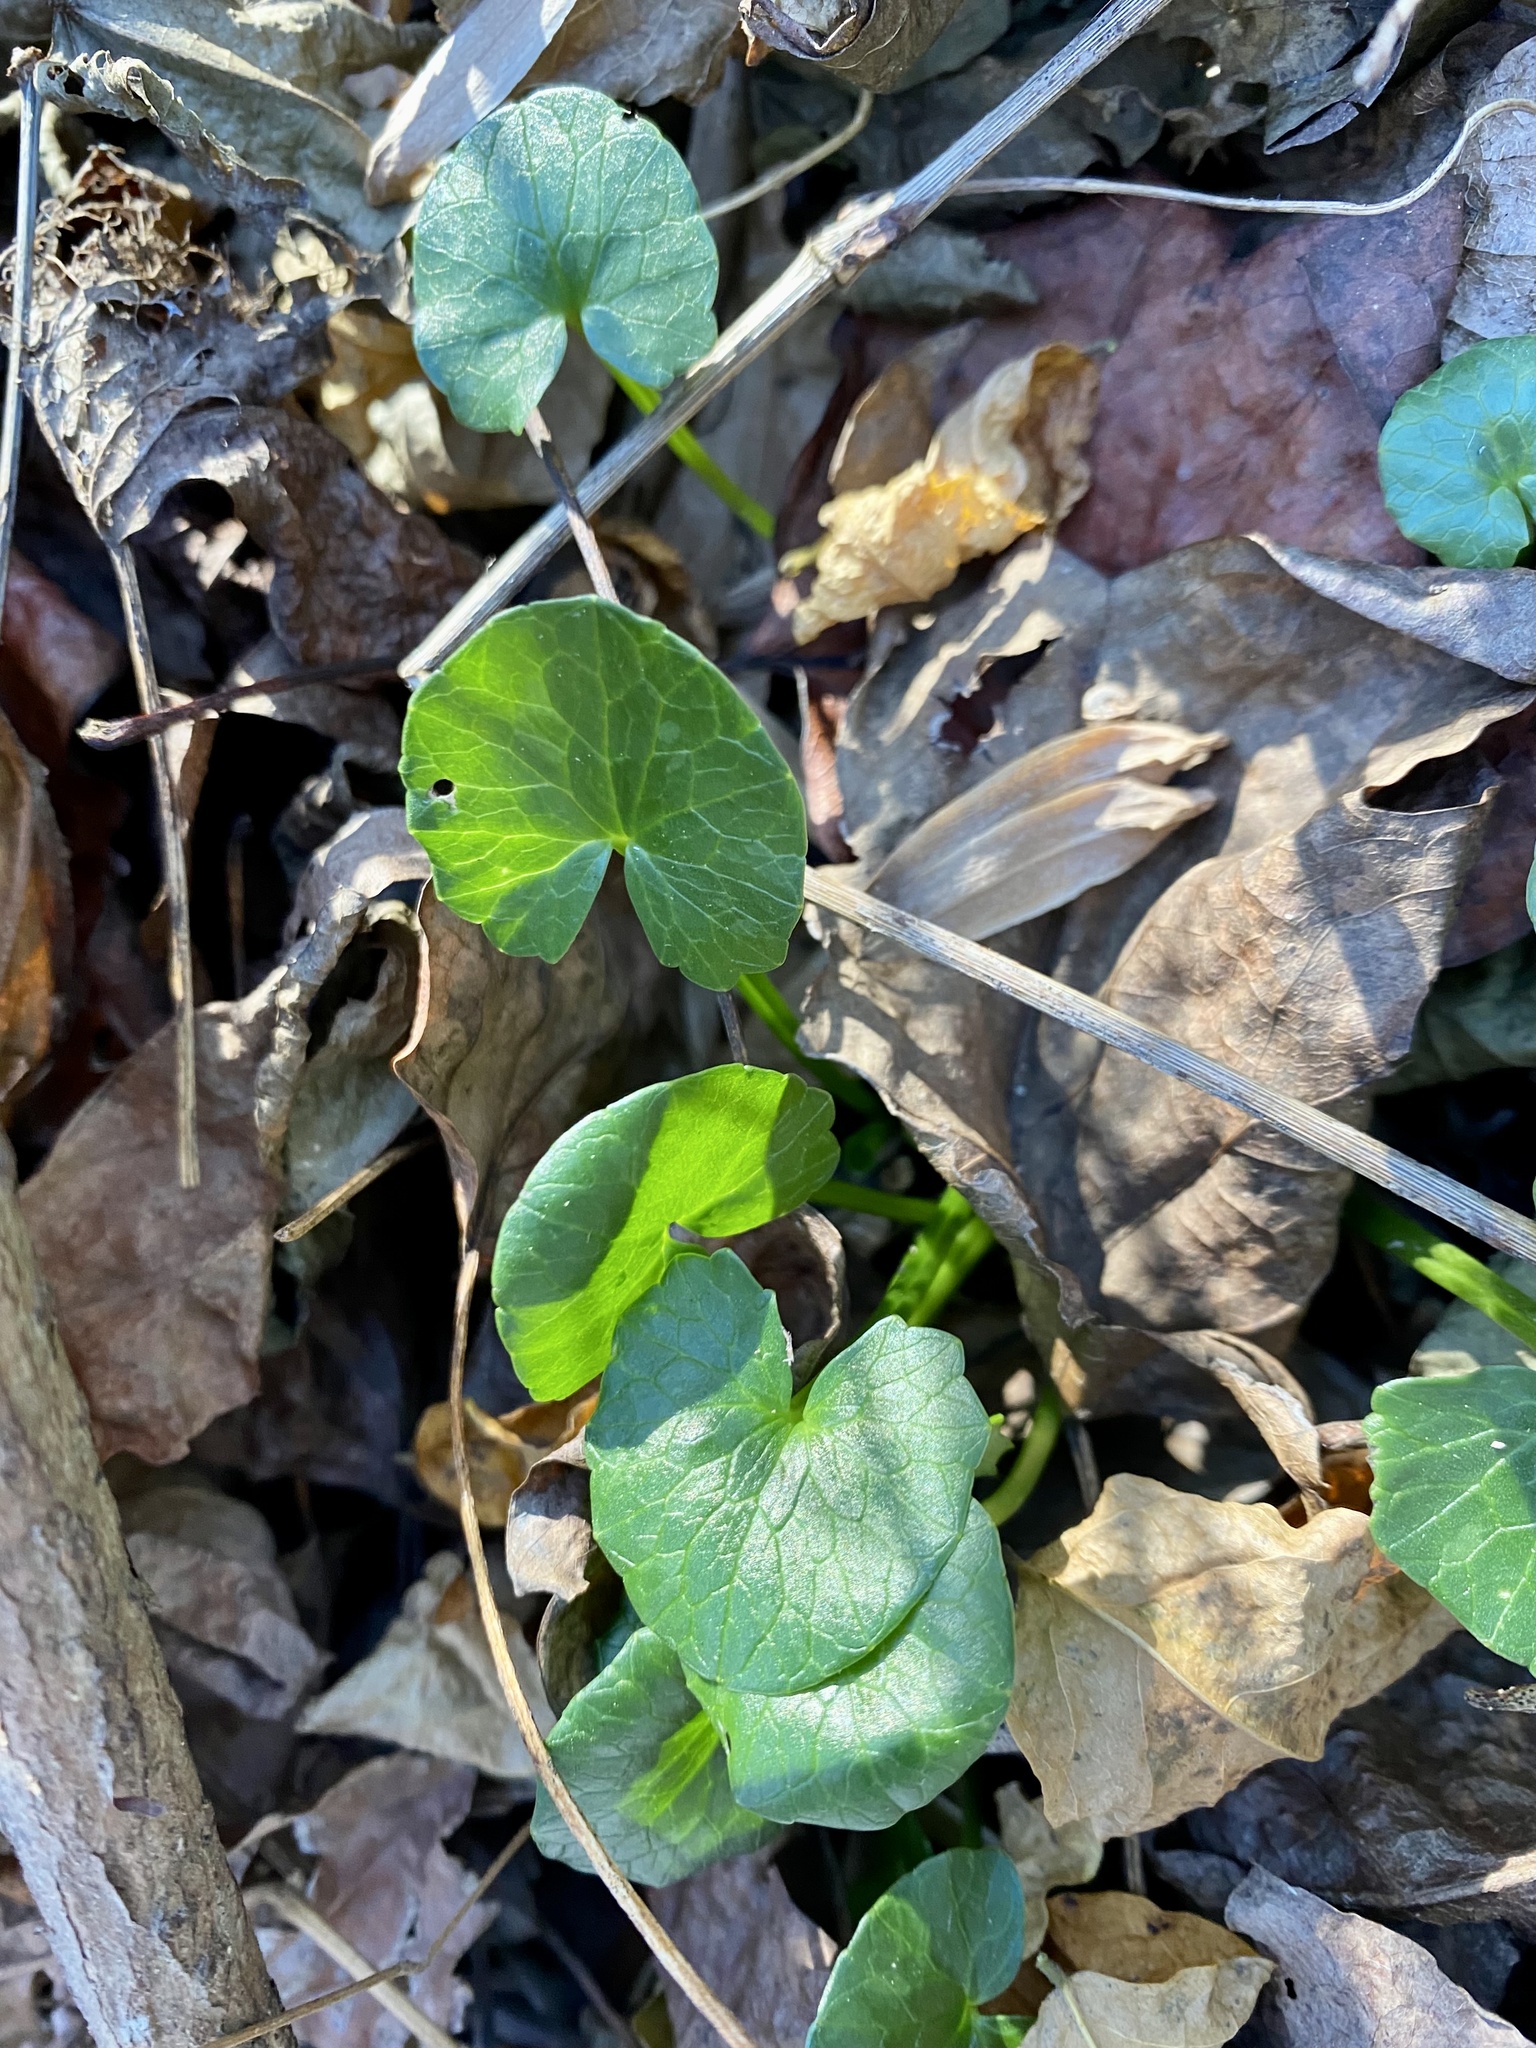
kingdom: Plantae
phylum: Tracheophyta
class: Magnoliopsida
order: Ranunculales
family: Ranunculaceae
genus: Ficaria
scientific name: Ficaria verna
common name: Lesser celandine
